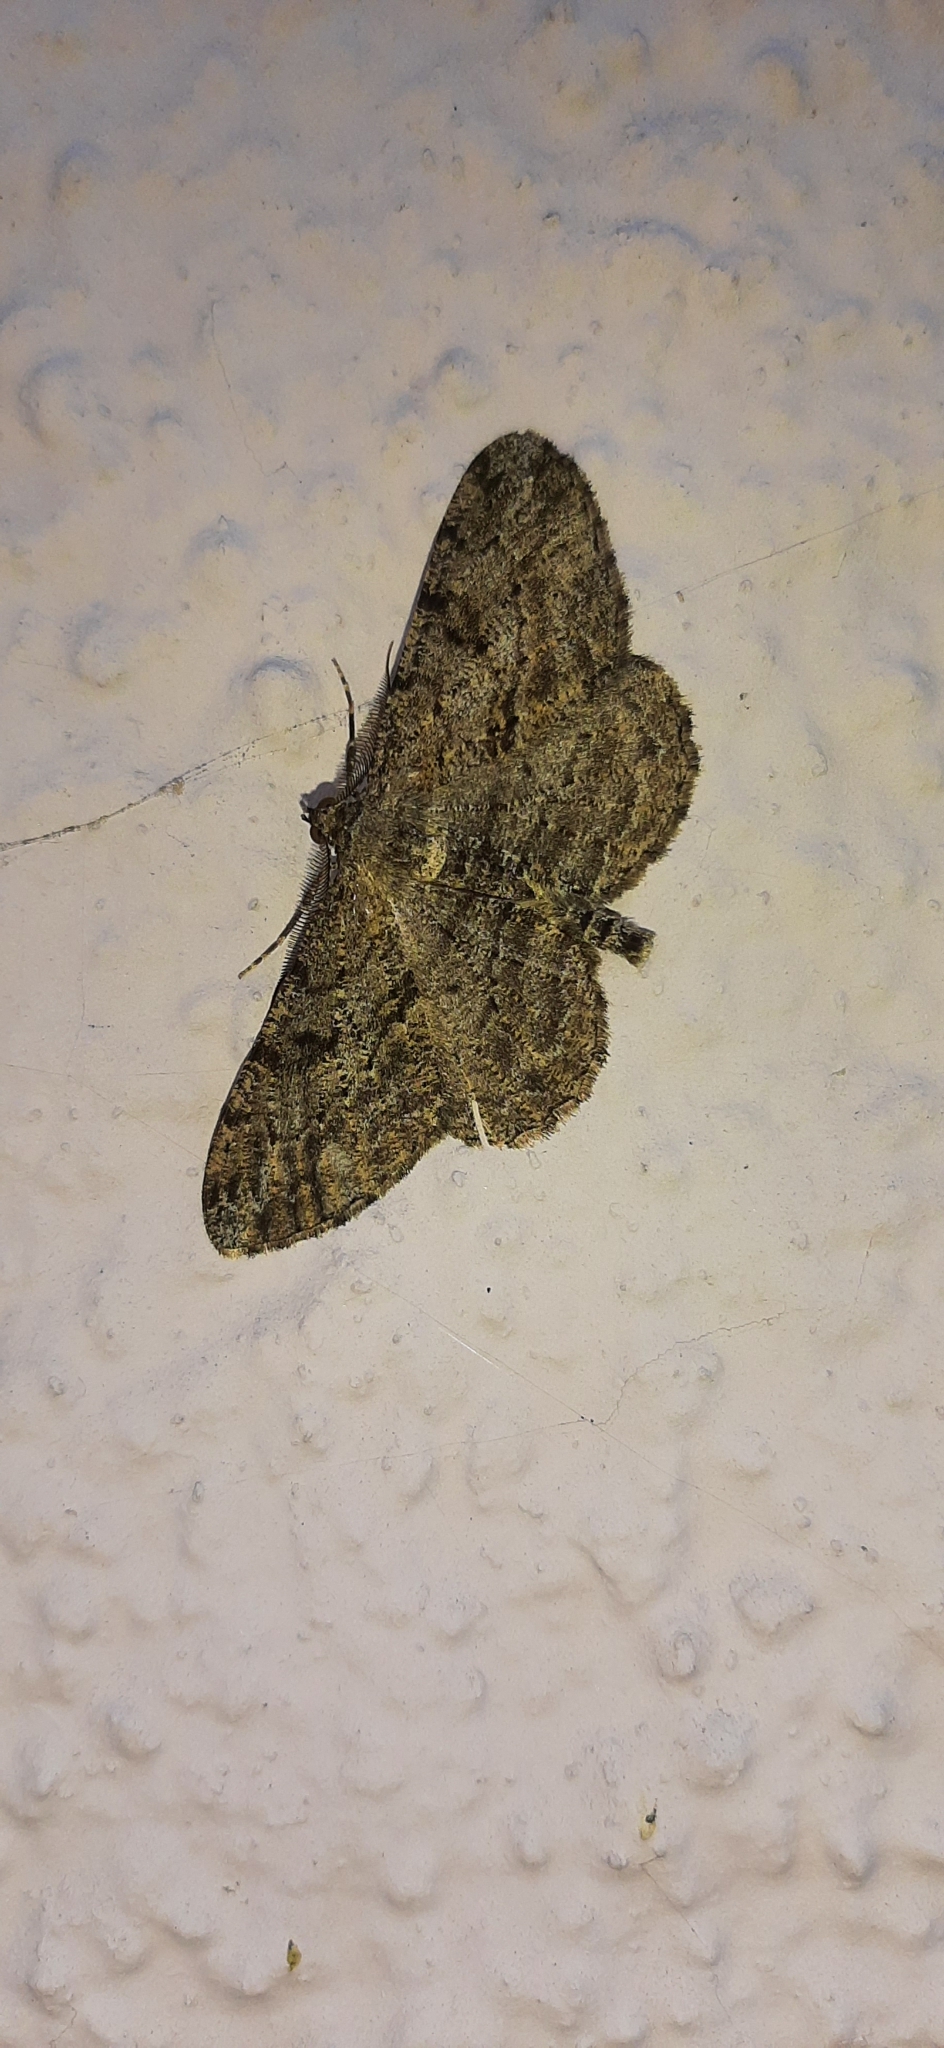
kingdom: Animalia
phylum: Arthropoda
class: Insecta
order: Lepidoptera
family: Geometridae
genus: Peribatodes
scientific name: Peribatodes rhomboidaria
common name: Willow beauty
